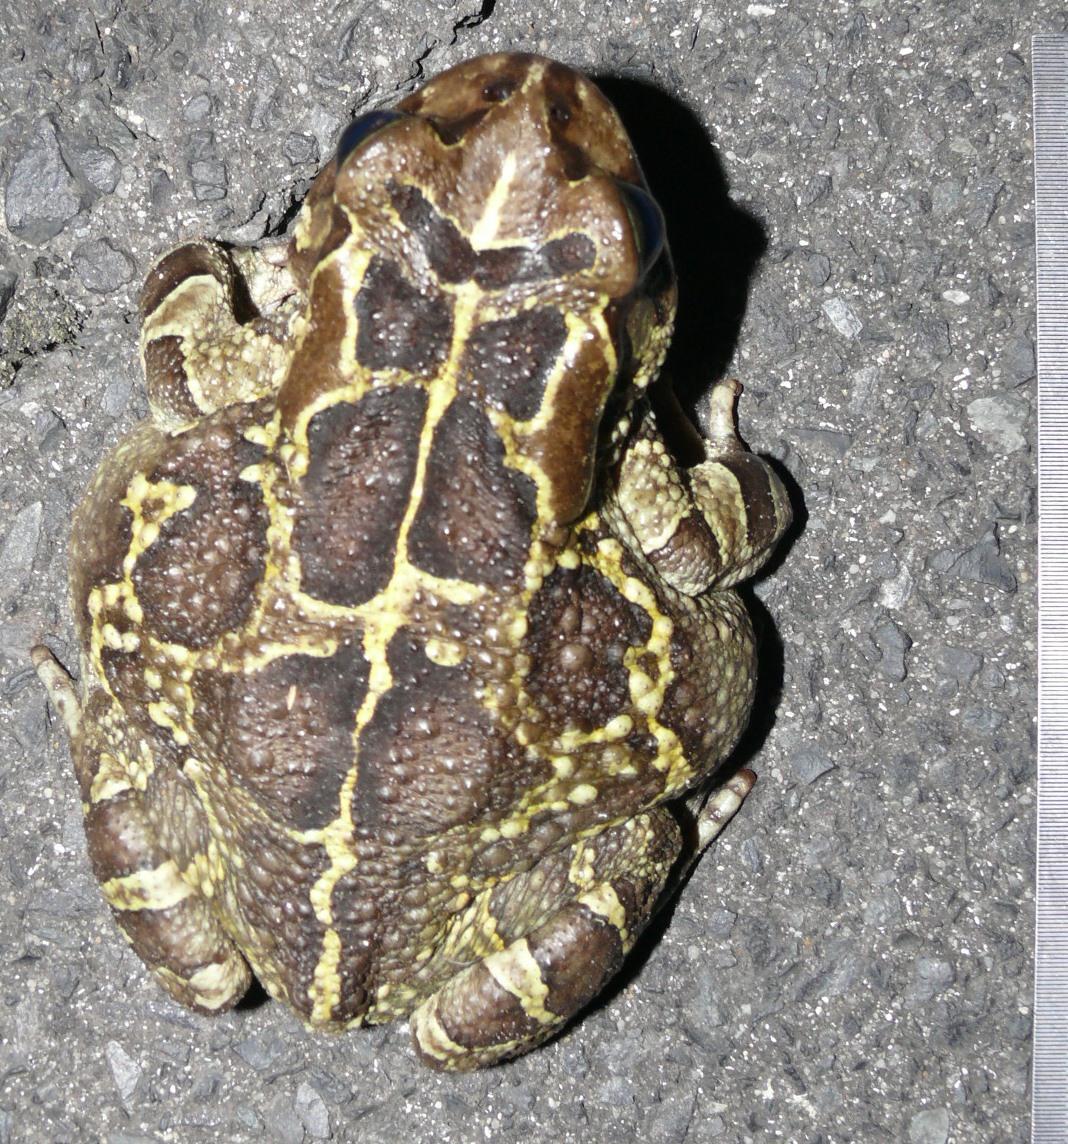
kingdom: Animalia
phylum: Chordata
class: Amphibia
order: Anura
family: Bufonidae
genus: Sclerophrys
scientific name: Sclerophrys pantherina
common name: Panther toad
